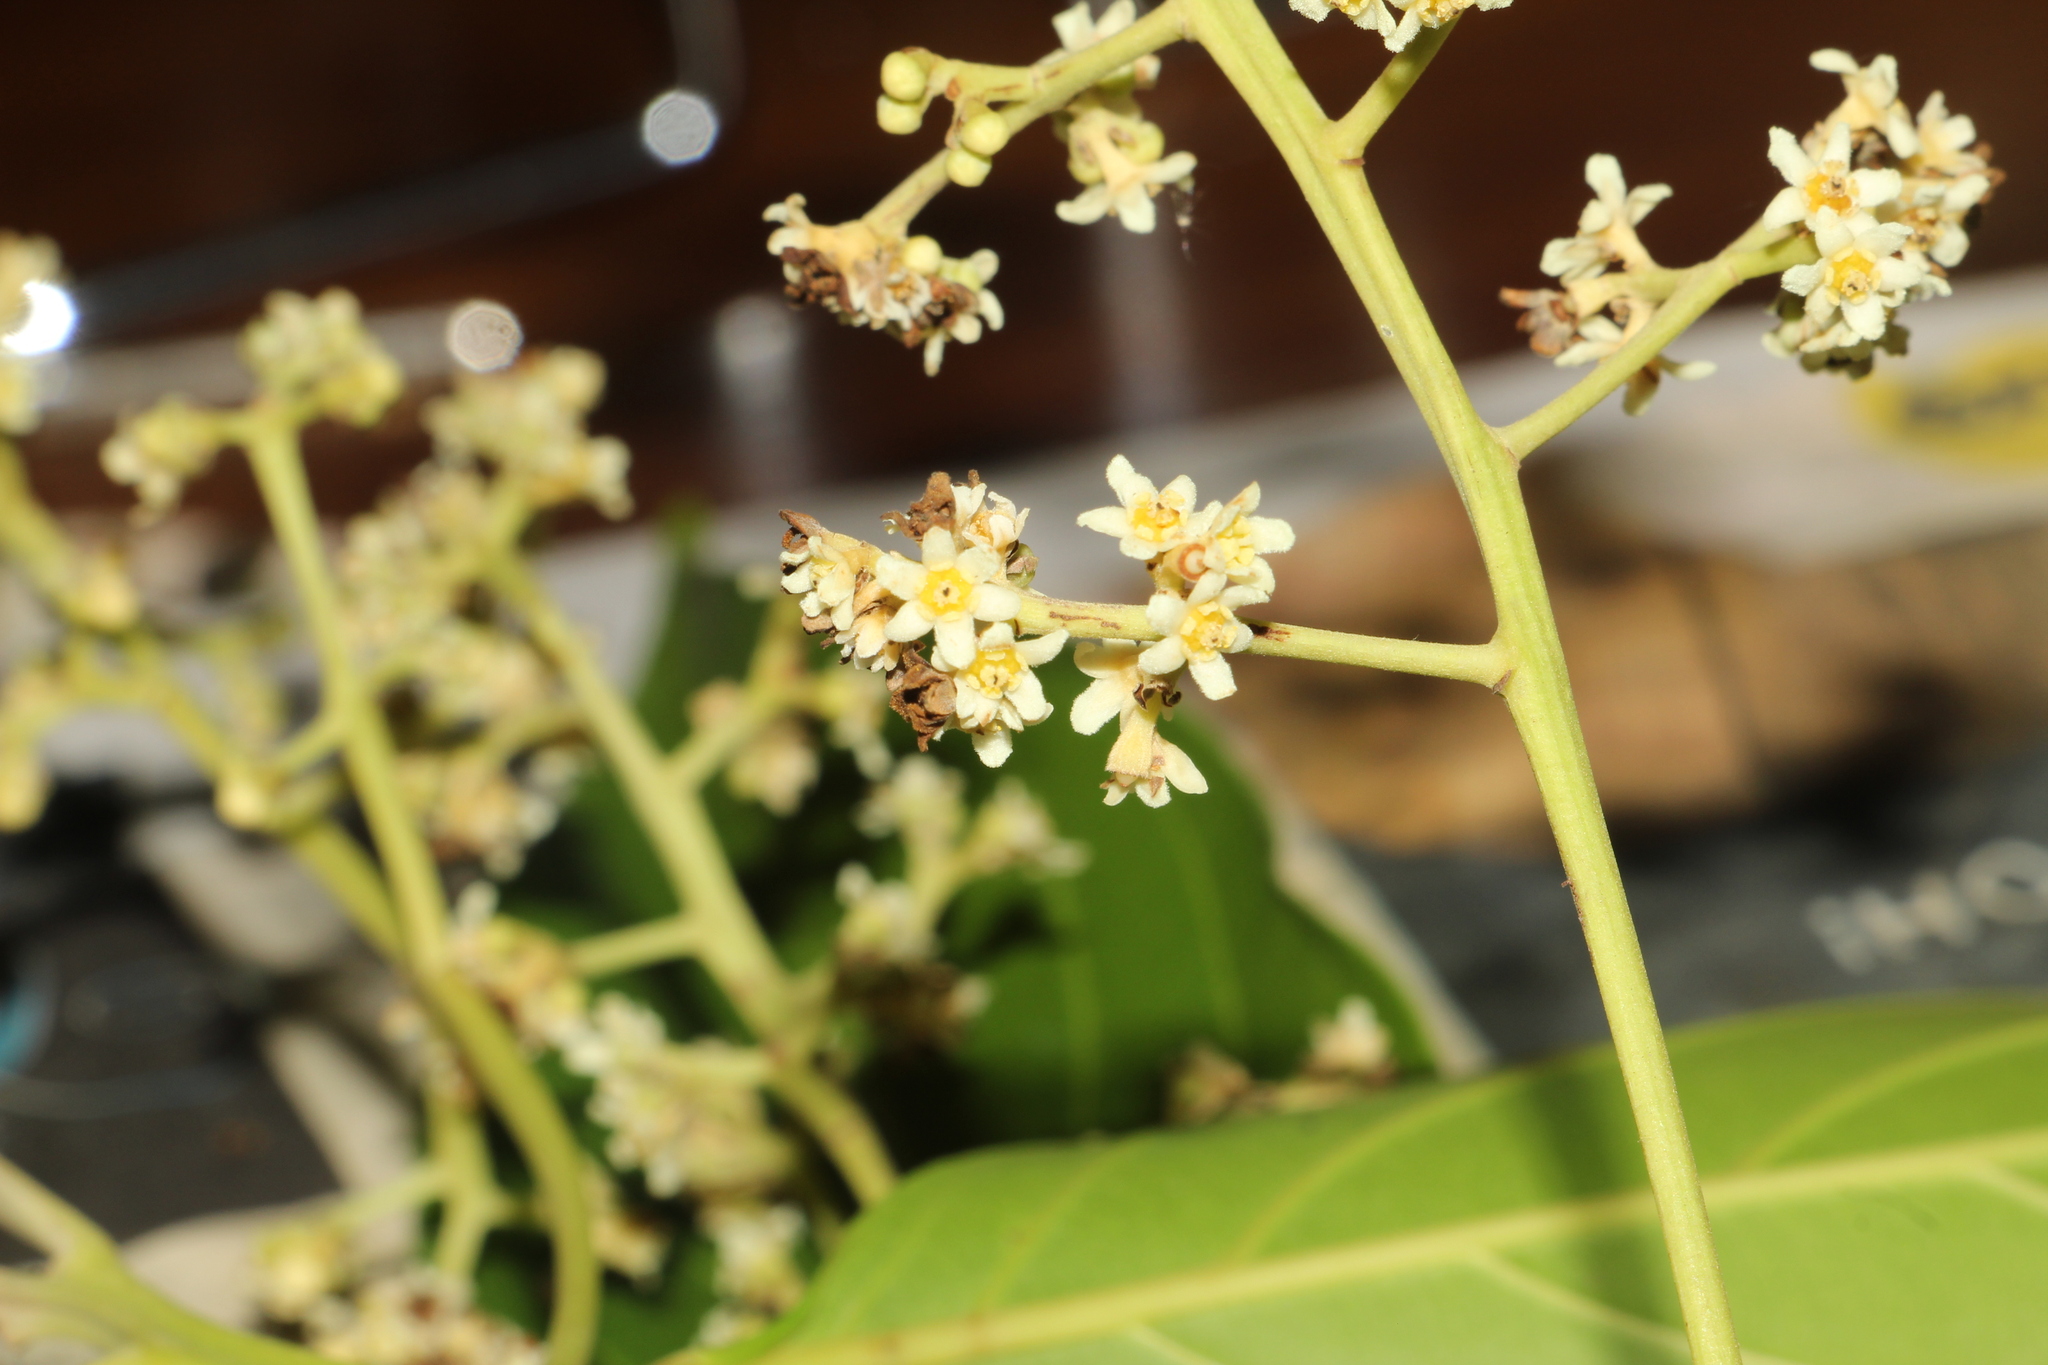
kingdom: Plantae
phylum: Tracheophyta
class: Magnoliopsida
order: Laurales
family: Lauraceae
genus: Nectandra
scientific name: Nectandra cuspidata
